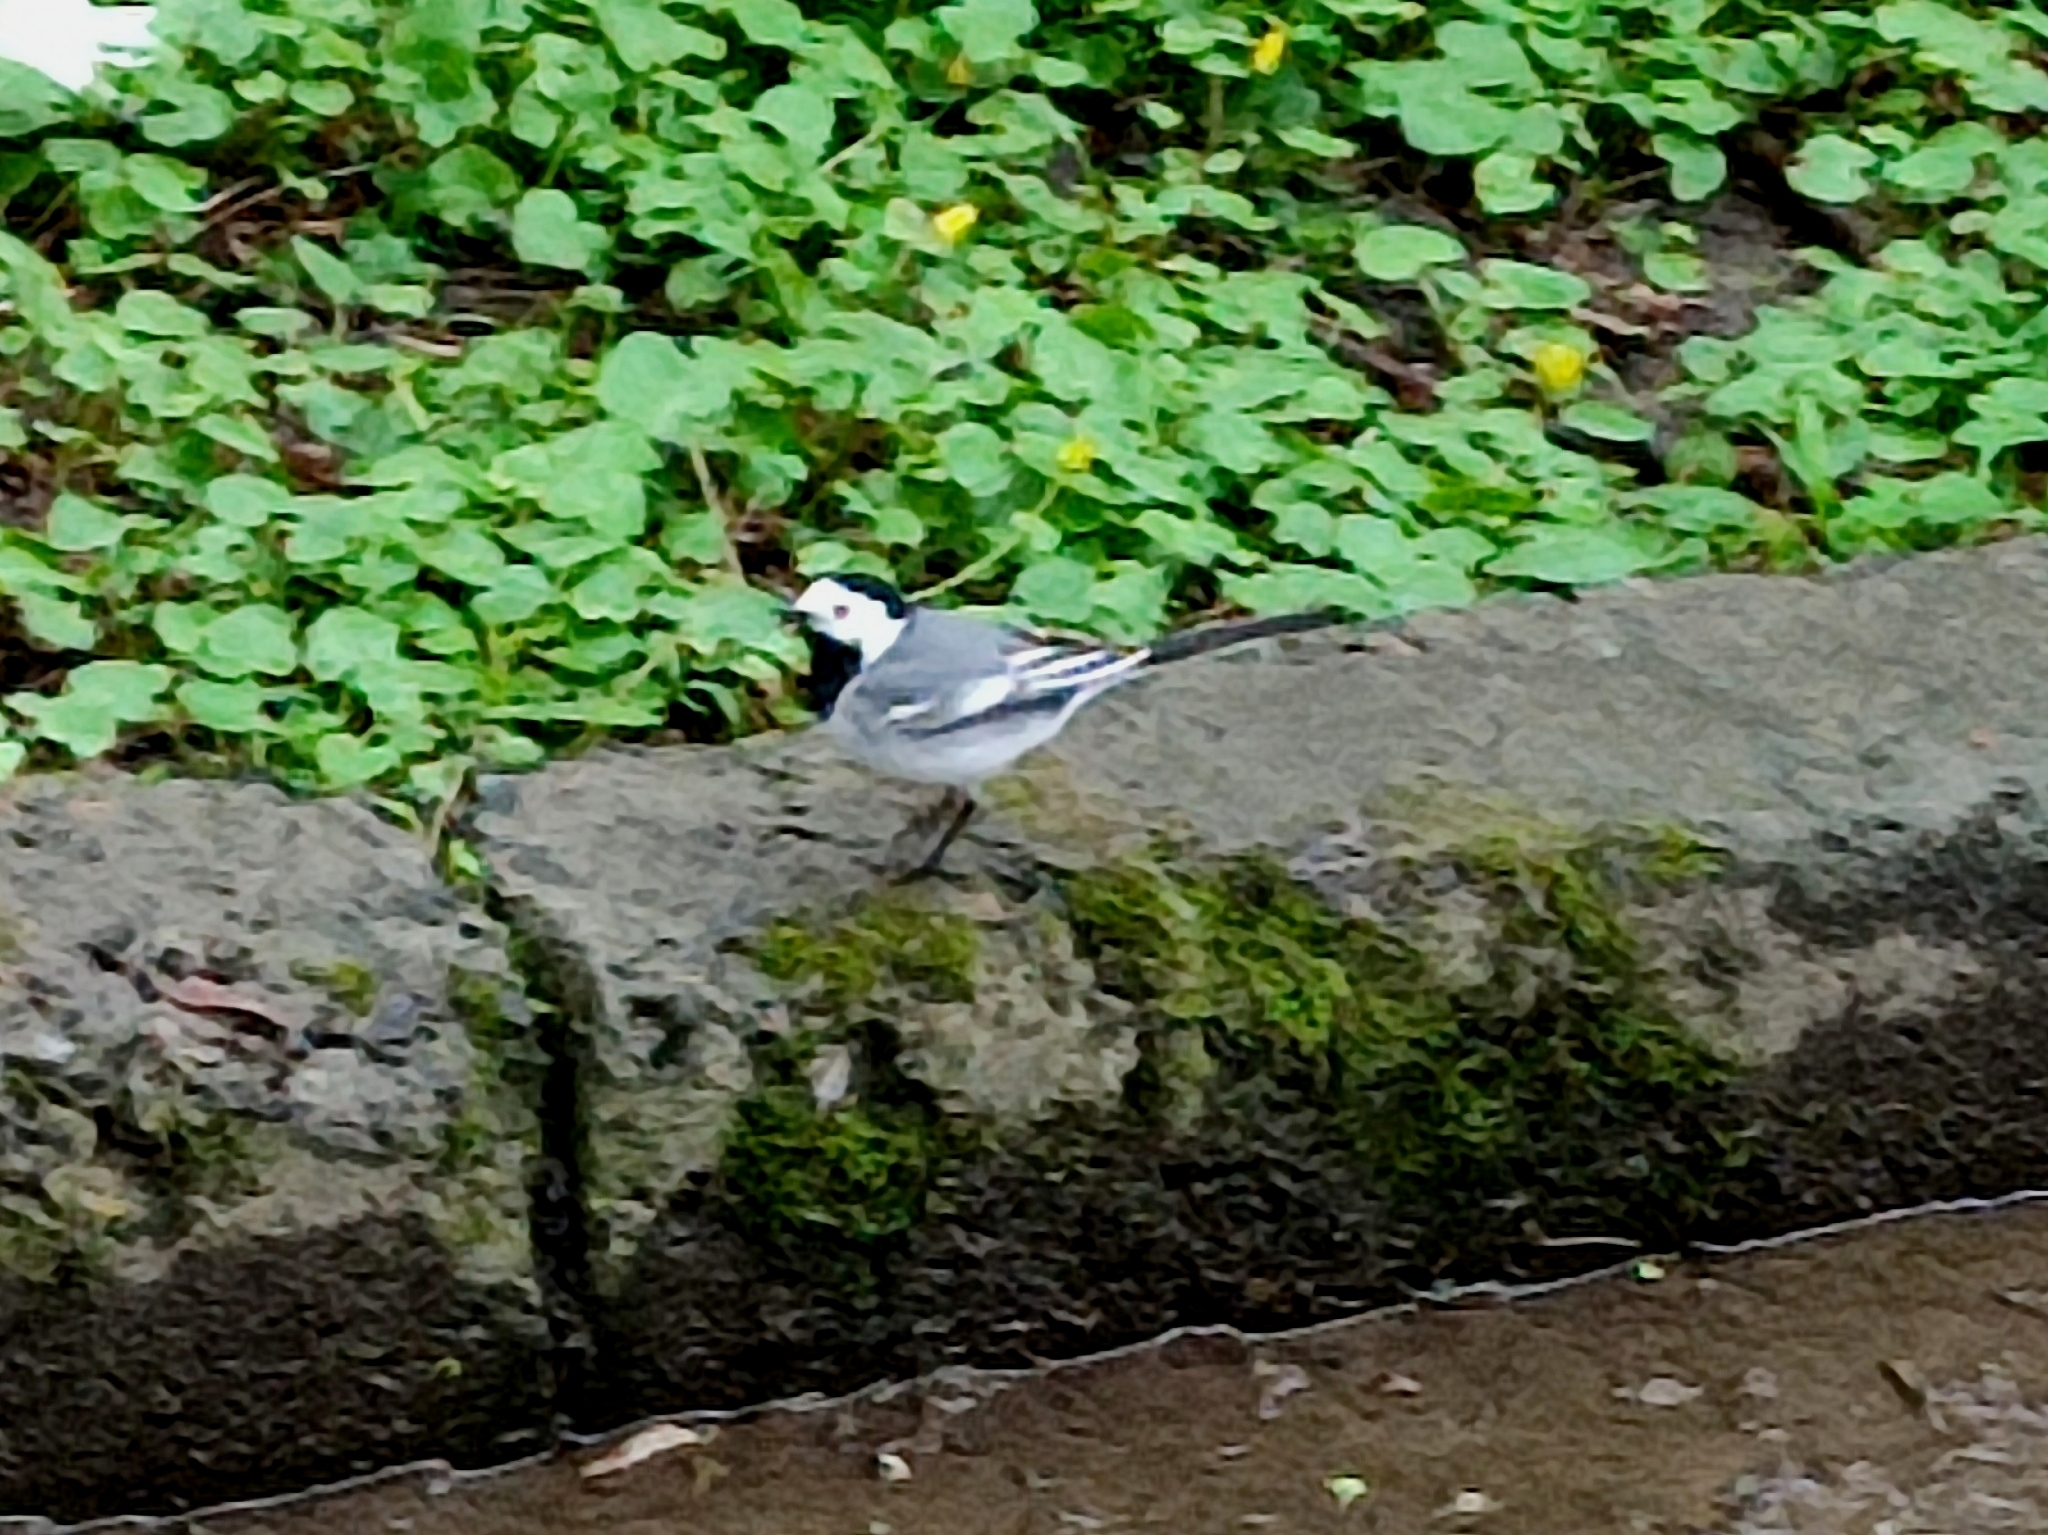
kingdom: Animalia
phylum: Chordata
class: Aves
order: Passeriformes
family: Motacillidae
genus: Motacilla
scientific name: Motacilla alba
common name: White wagtail
